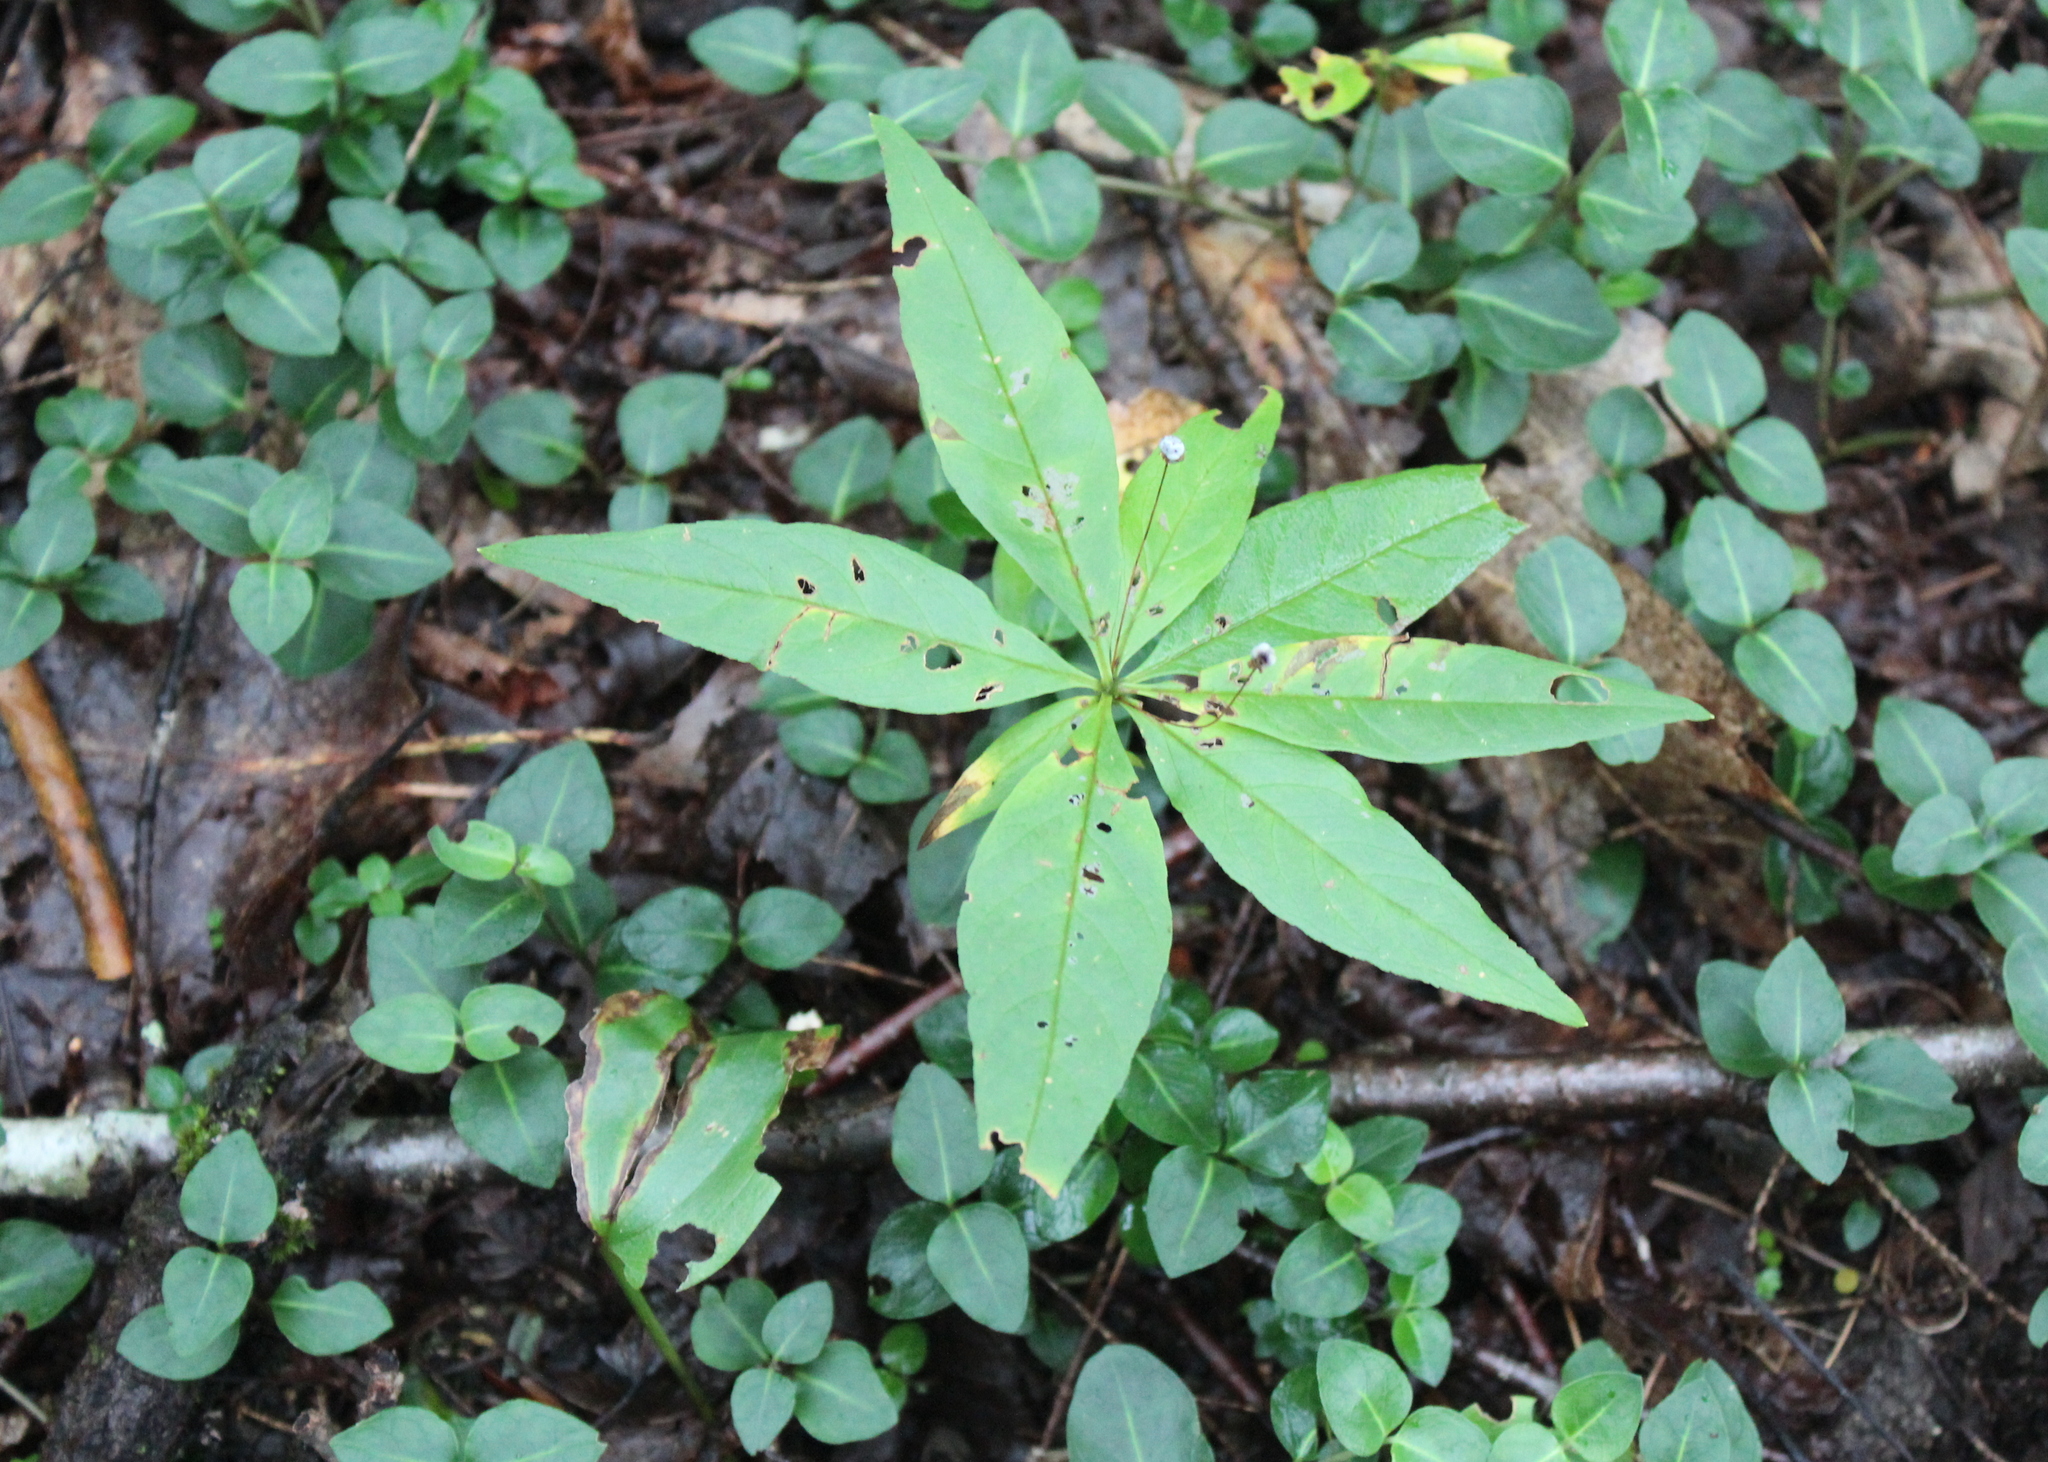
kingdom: Plantae
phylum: Tracheophyta
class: Magnoliopsida
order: Ericales
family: Primulaceae
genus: Lysimachia
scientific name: Lysimachia borealis
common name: American starflower
